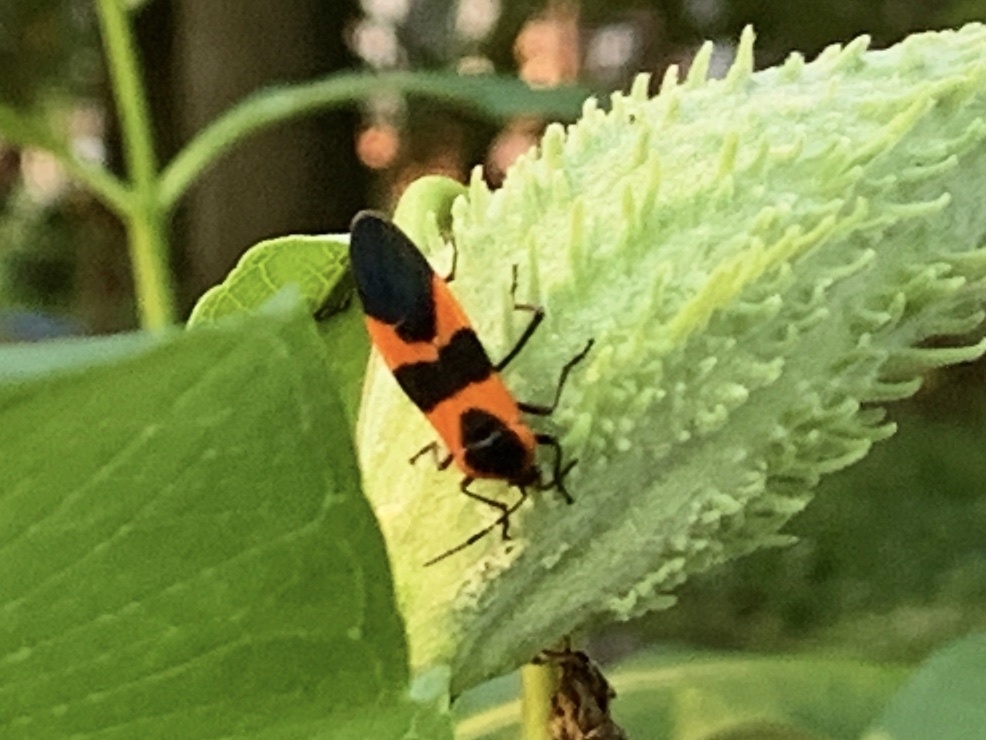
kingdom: Animalia
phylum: Arthropoda
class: Insecta
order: Hemiptera
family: Lygaeidae
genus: Oncopeltus
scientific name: Oncopeltus fasciatus
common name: Large milkweed bug
